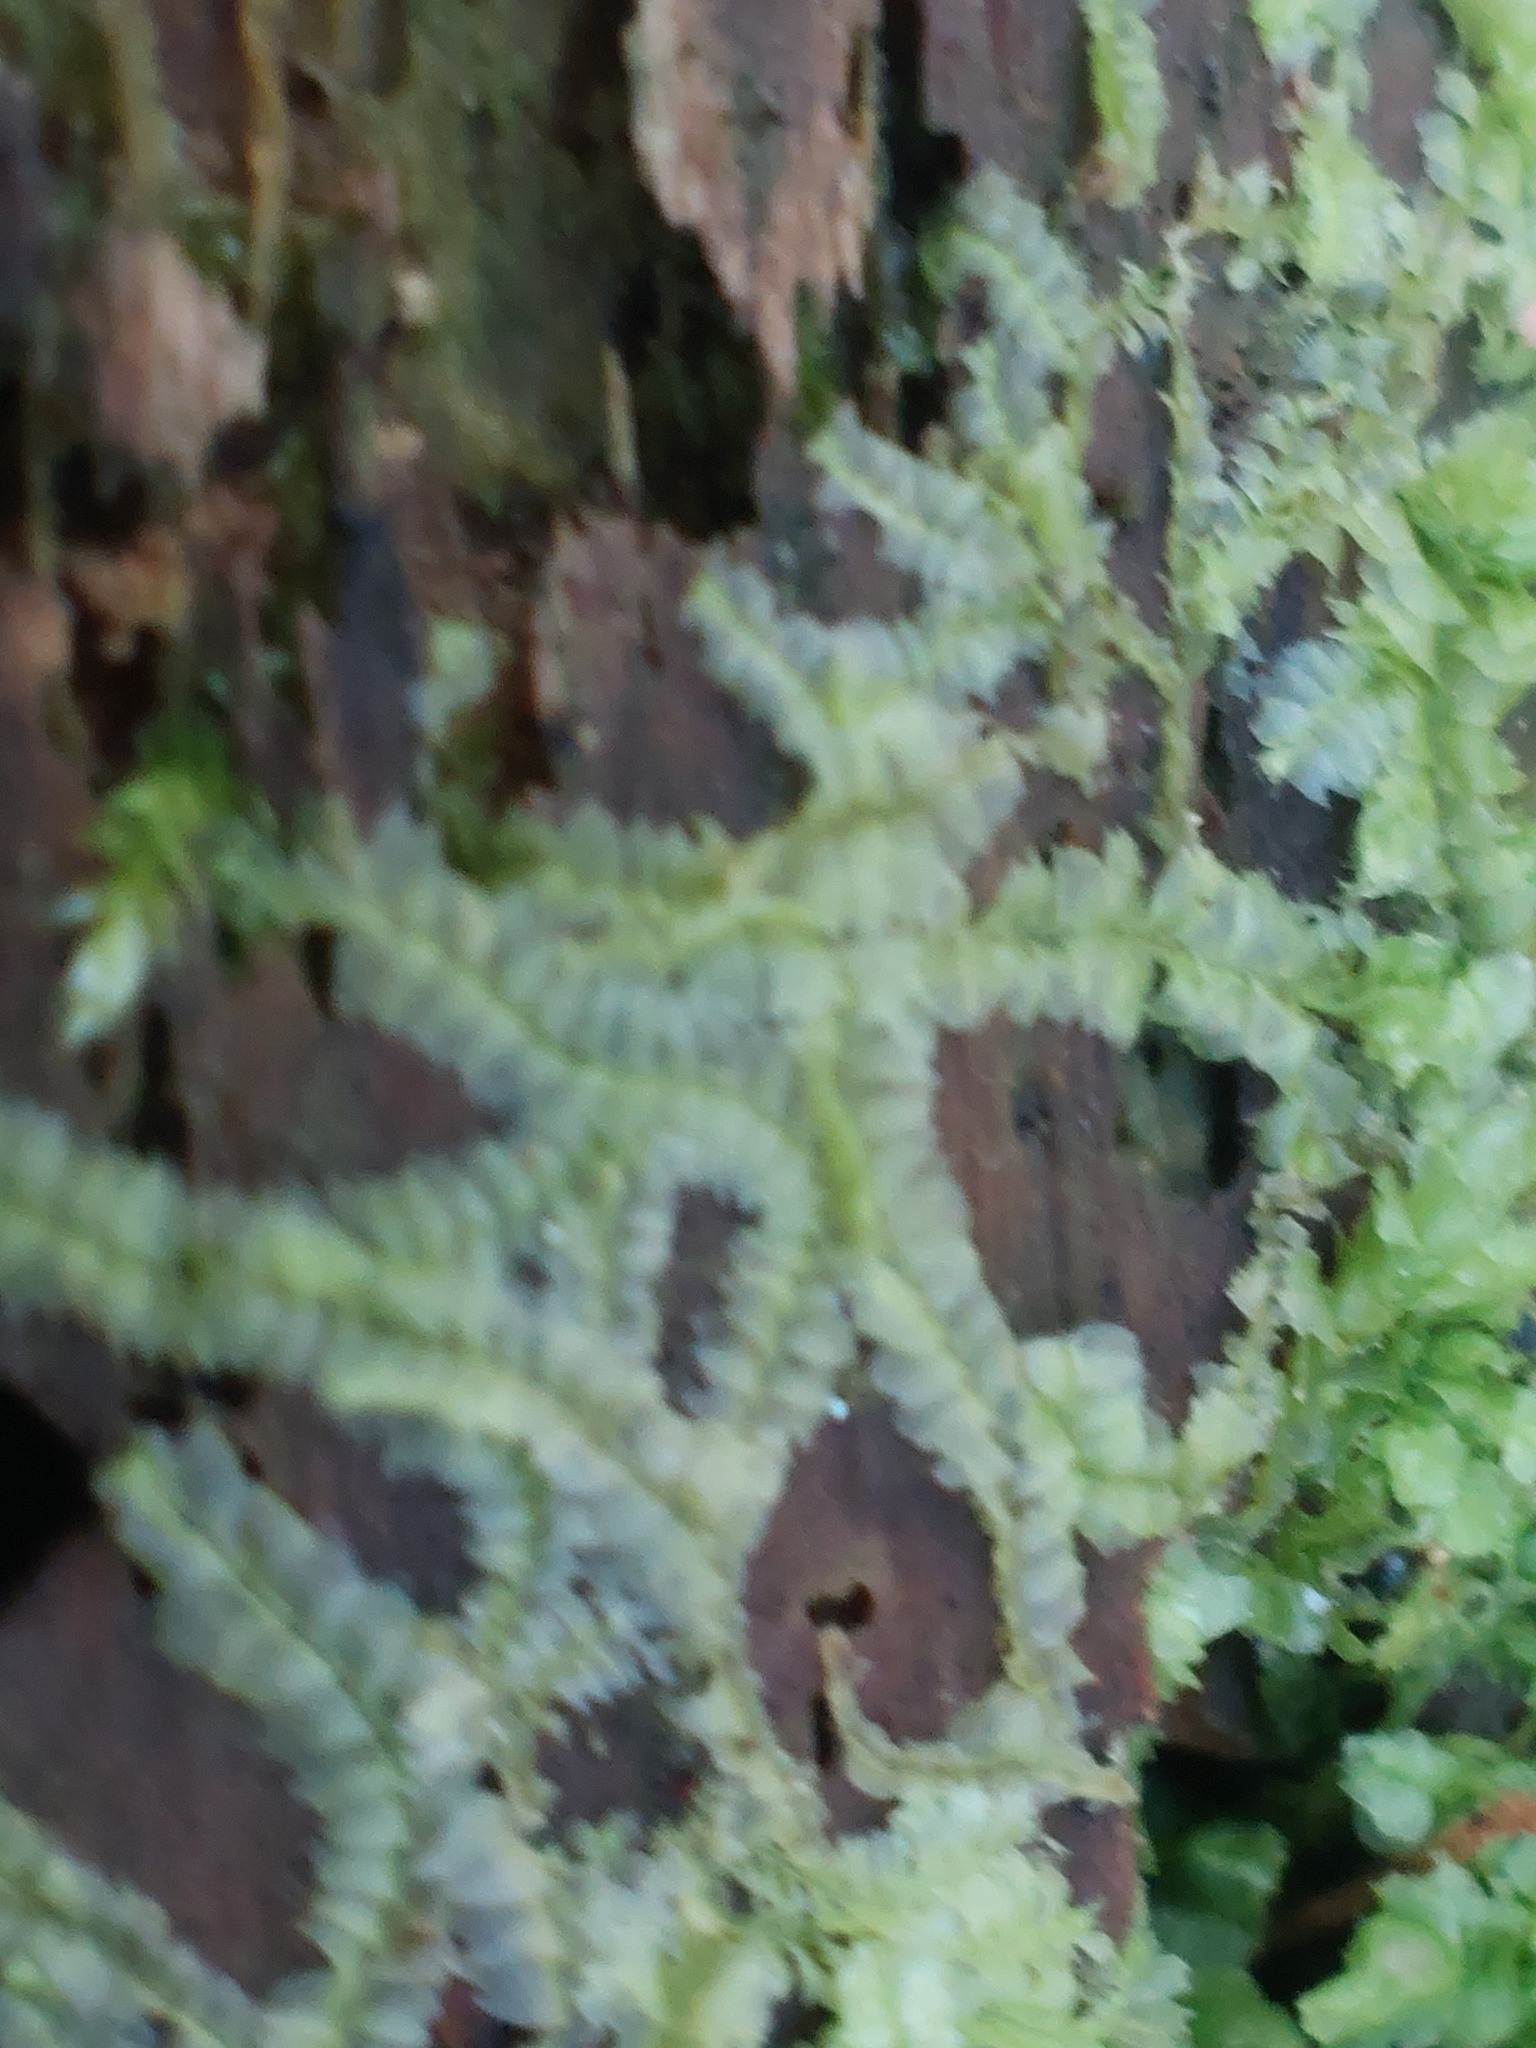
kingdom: Plantae
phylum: Marchantiophyta
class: Jungermanniopsida
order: Jungermanniales
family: Lophocoleaceae
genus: Lophocolea
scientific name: Lophocolea heterophylla
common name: Variable-leaved crestwort
